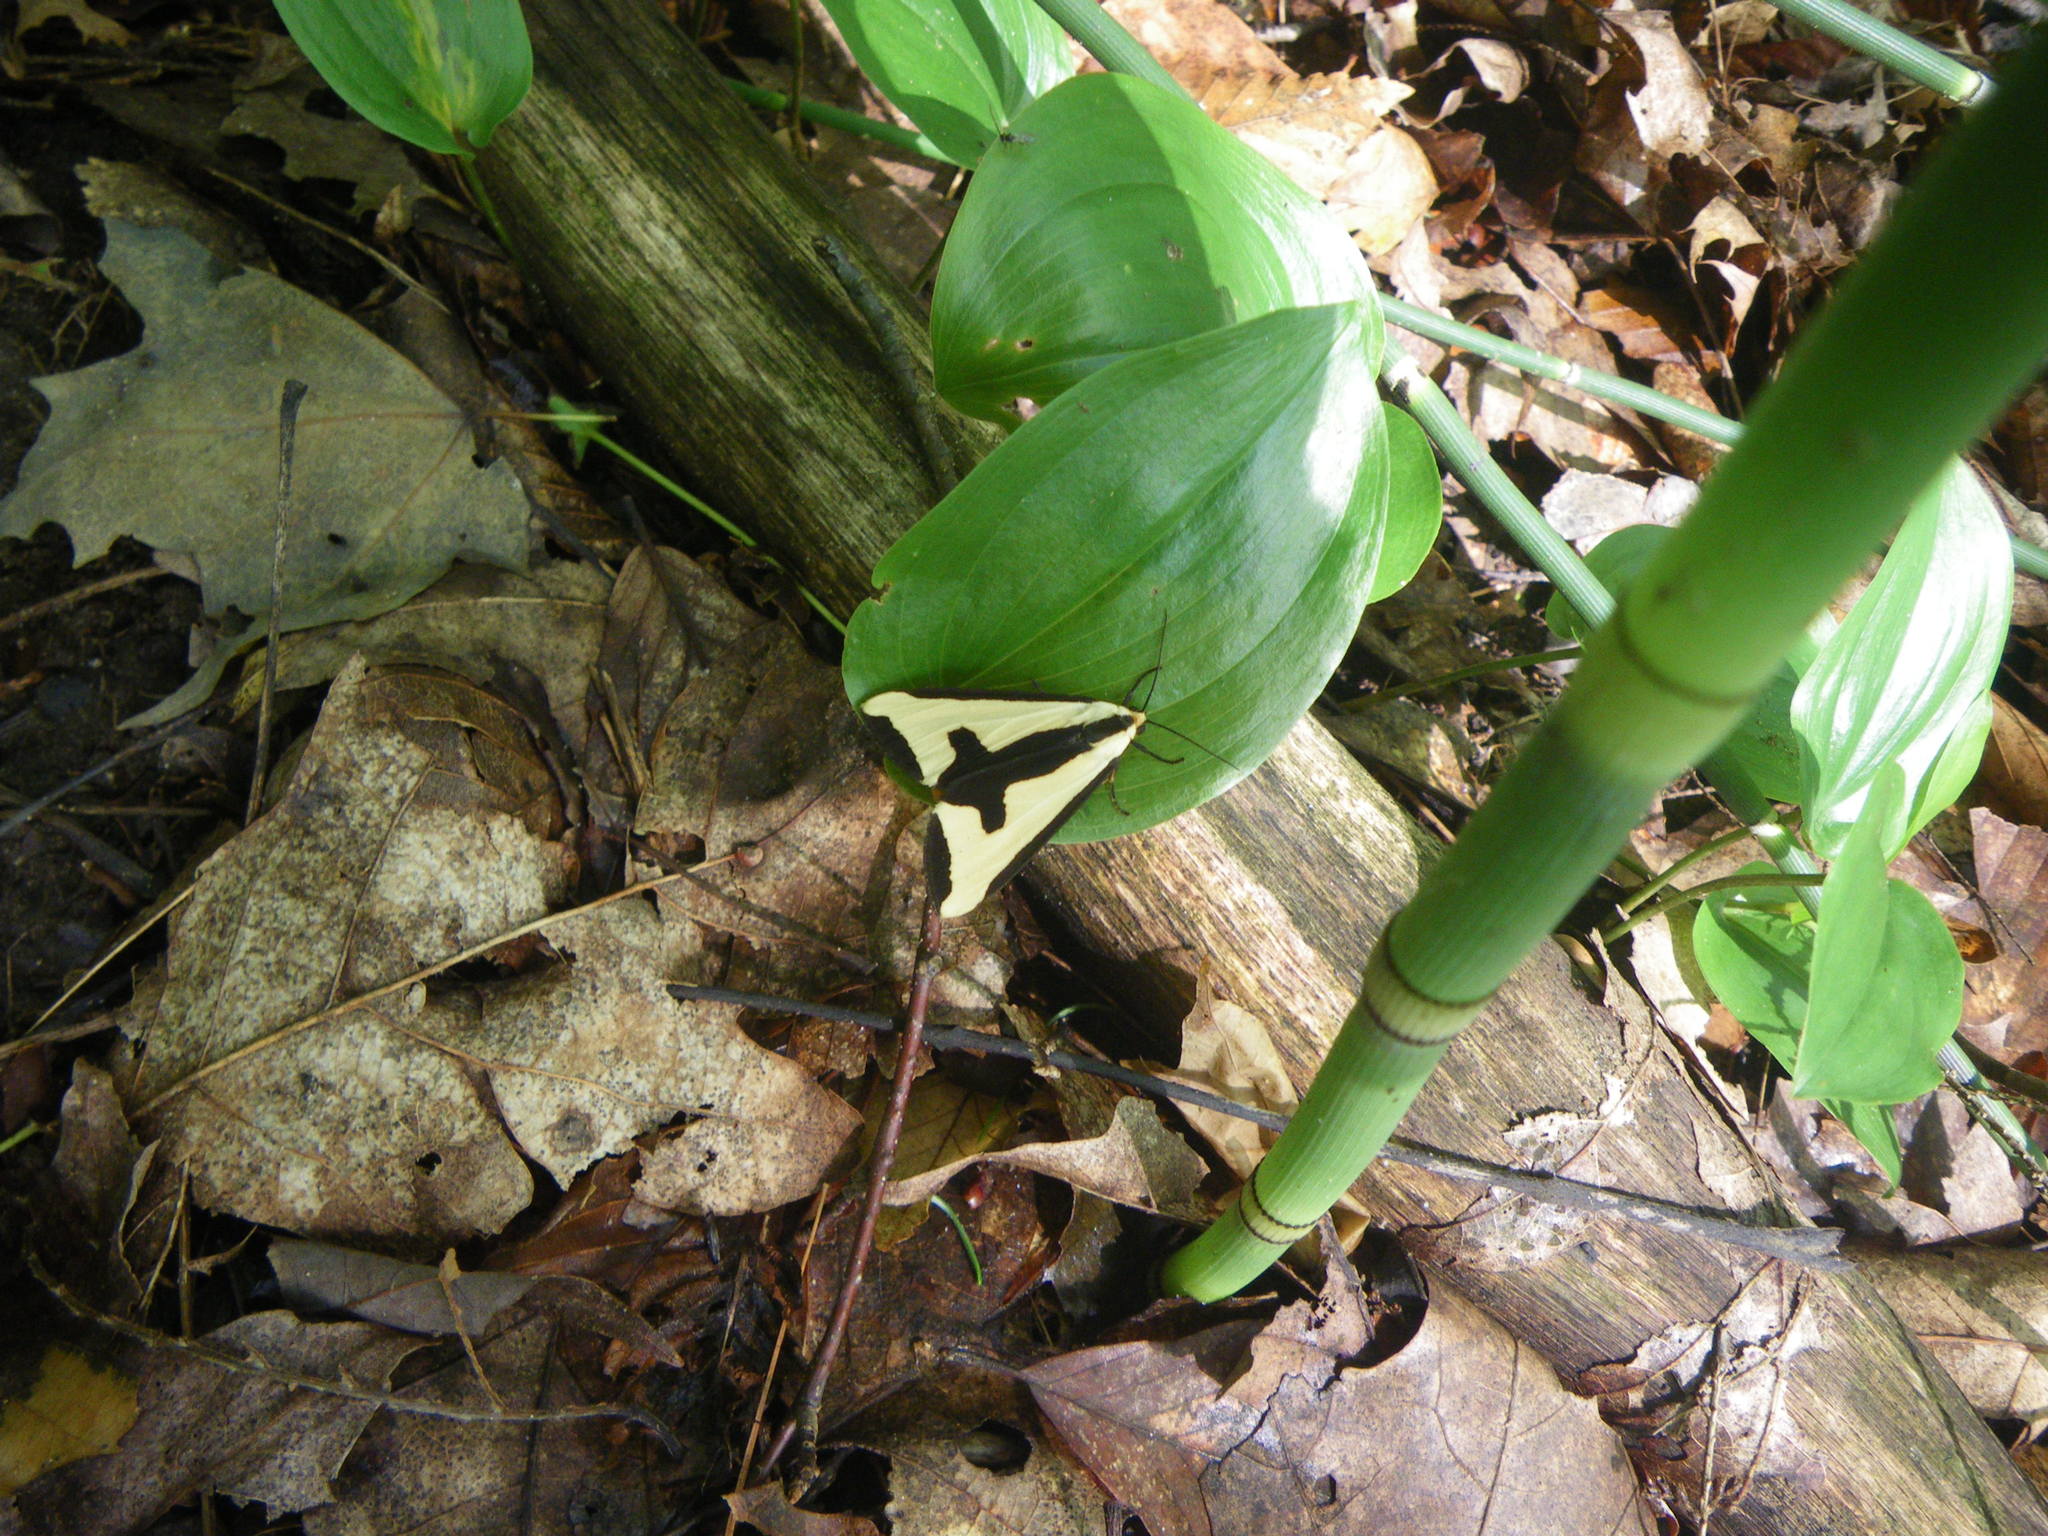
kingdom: Animalia
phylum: Arthropoda
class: Insecta
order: Lepidoptera
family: Erebidae
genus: Haploa
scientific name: Haploa clymene
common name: Clymene moth
